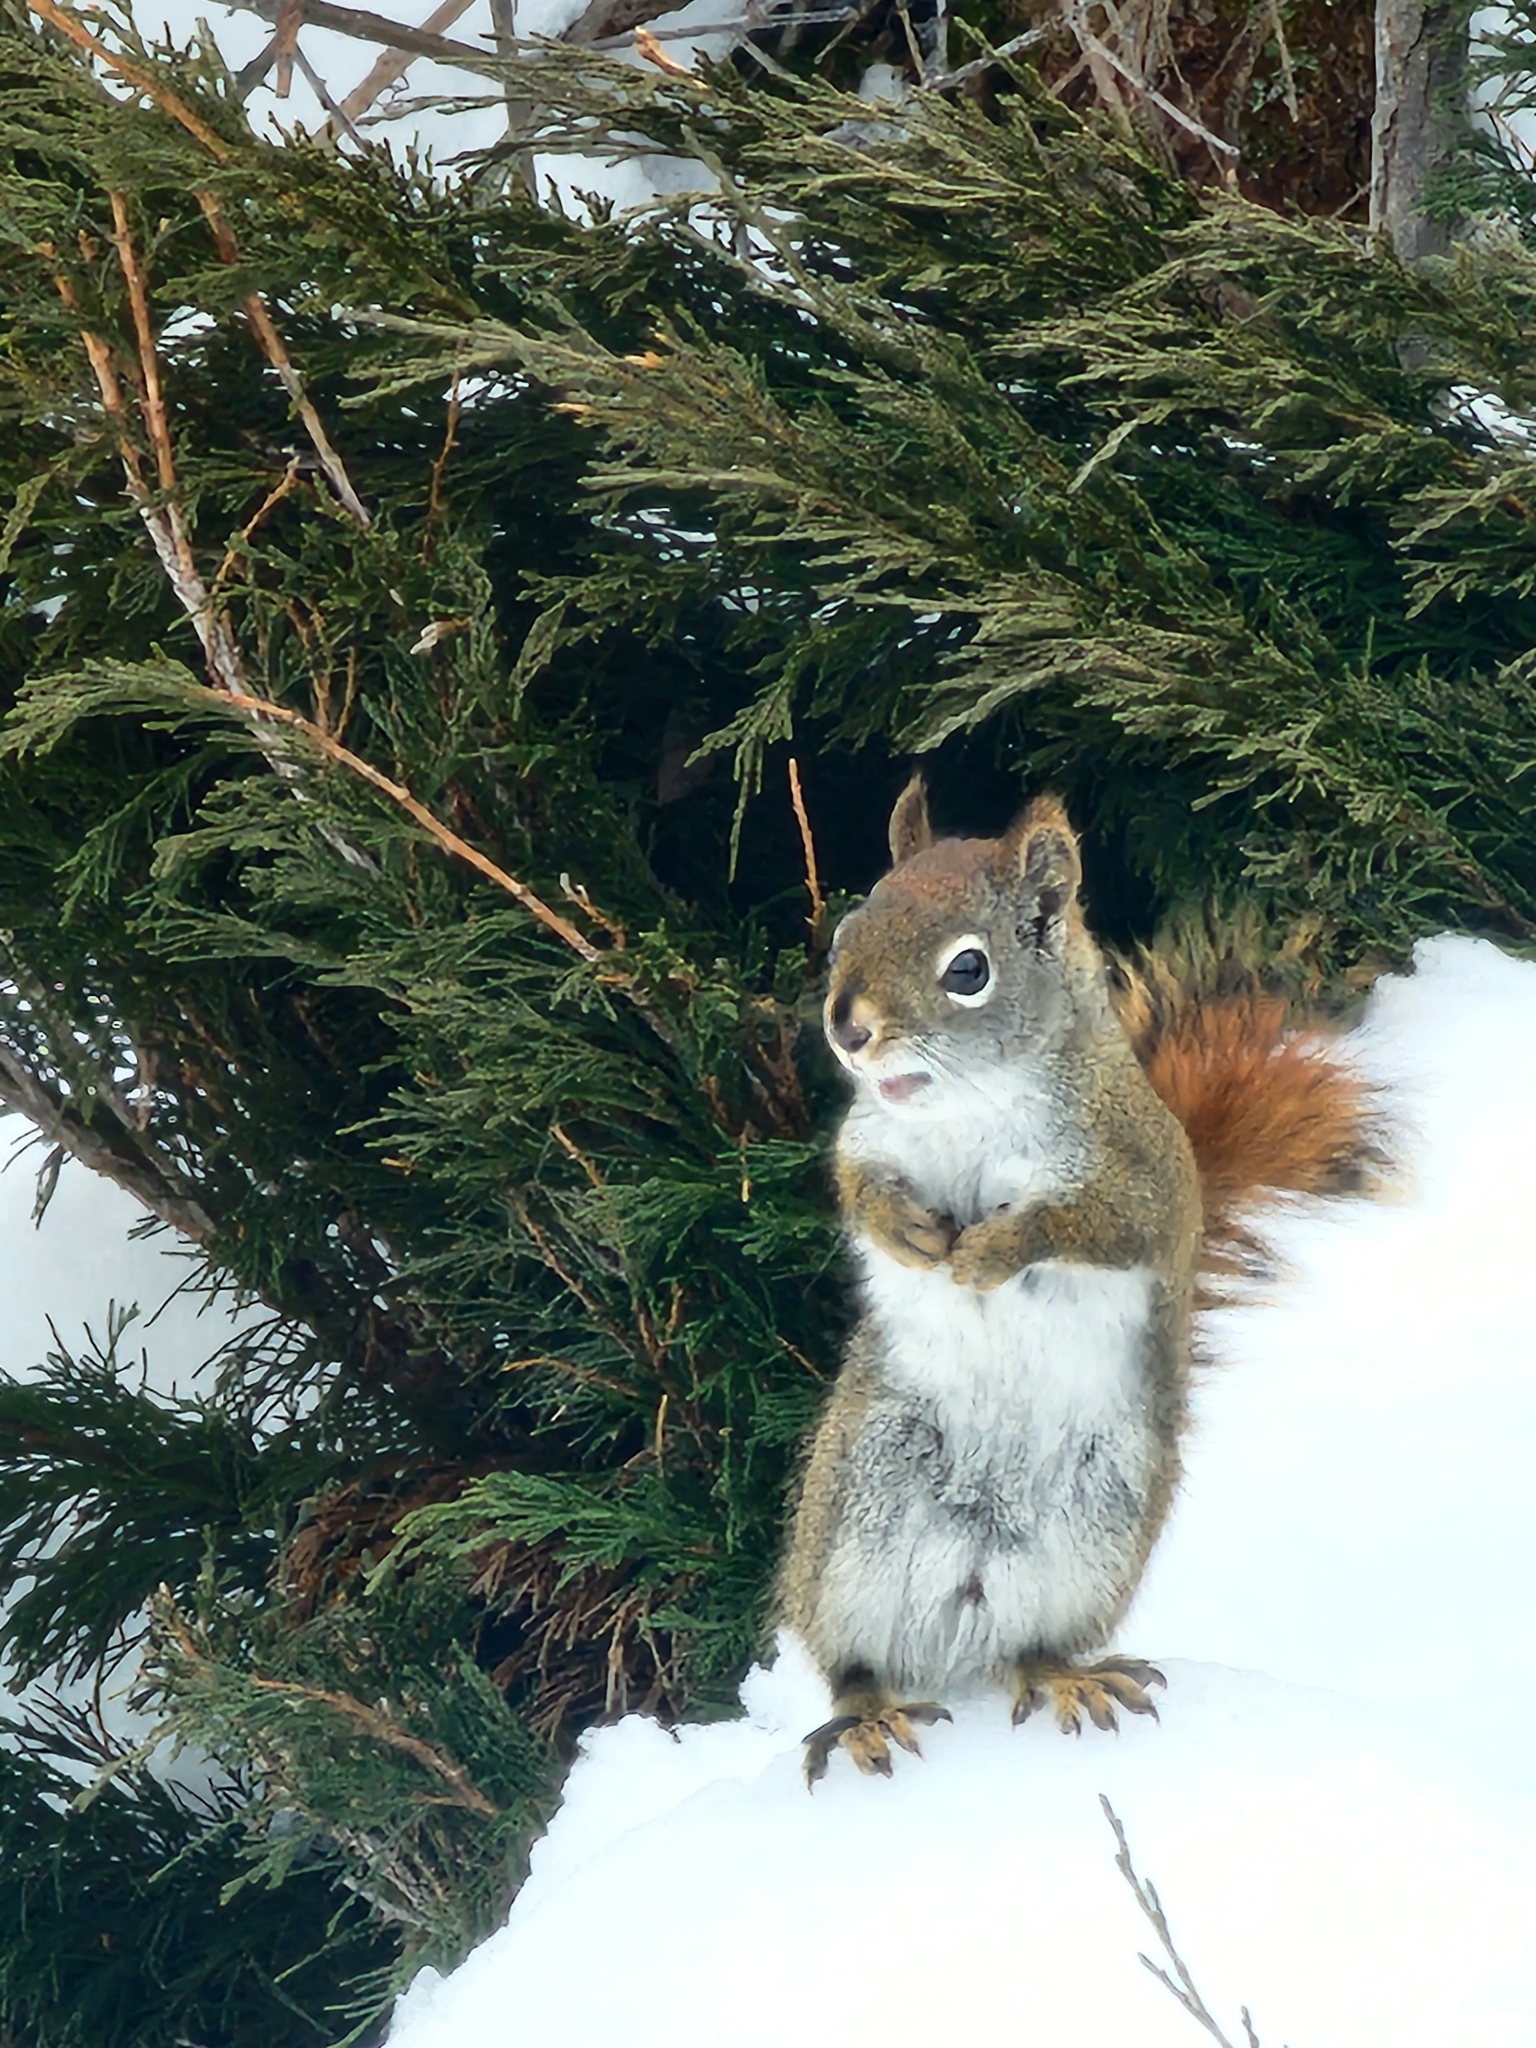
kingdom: Animalia
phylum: Chordata
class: Mammalia
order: Rodentia
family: Sciuridae
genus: Tamiasciurus
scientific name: Tamiasciurus hudsonicus
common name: Red squirrel
